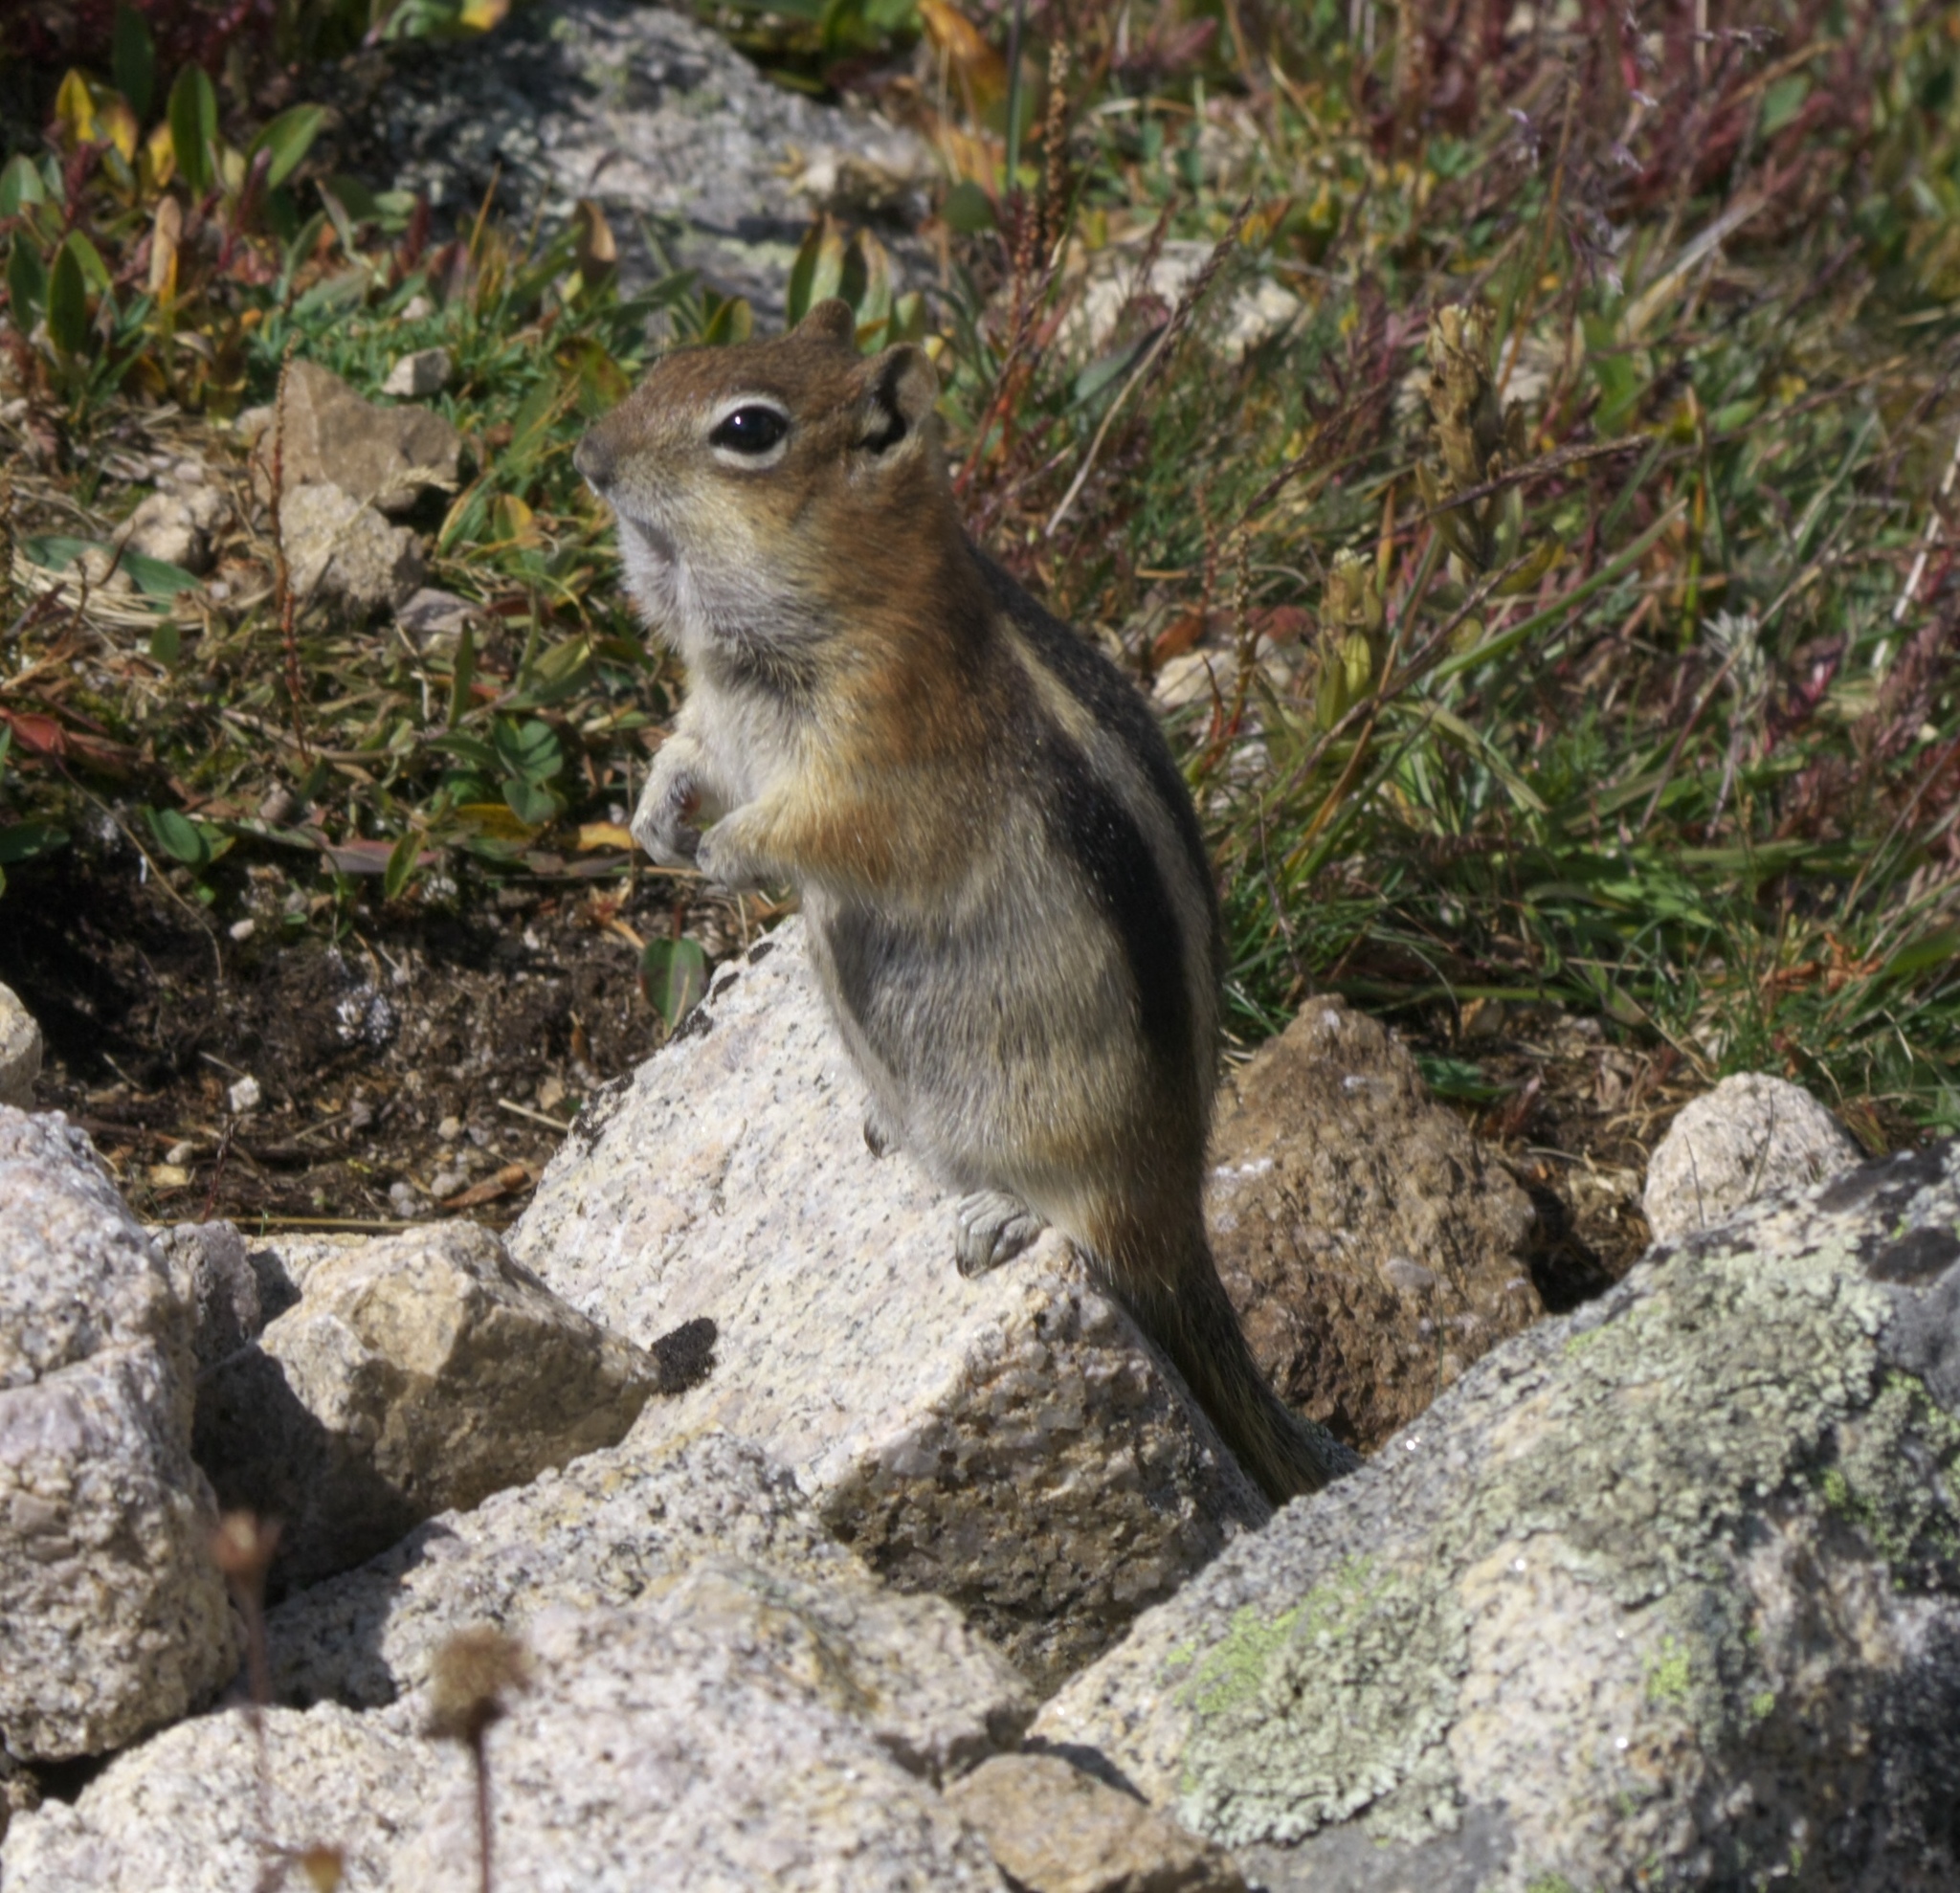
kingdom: Animalia
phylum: Chordata
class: Mammalia
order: Rodentia
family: Sciuridae
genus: Callospermophilus
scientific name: Callospermophilus lateralis
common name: Golden-mantled ground squirrel
